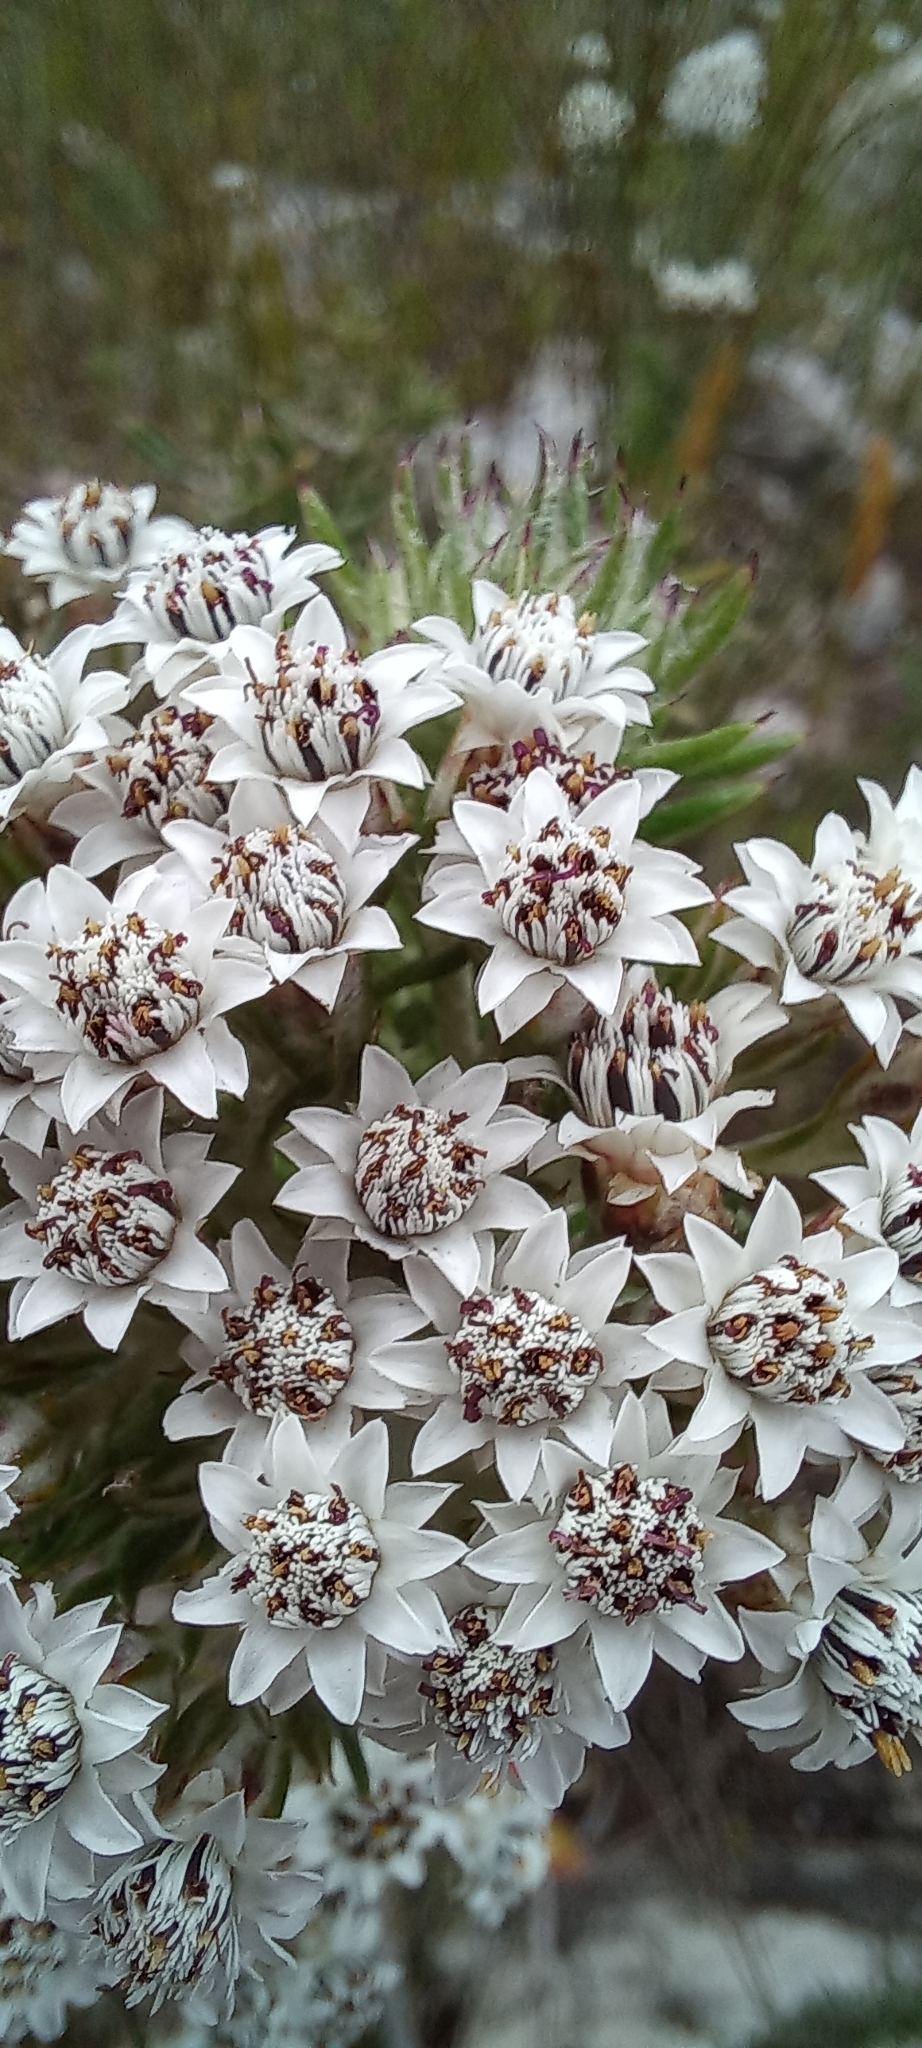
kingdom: Plantae
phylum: Tracheophyta
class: Magnoliopsida
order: Asterales
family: Asteraceae
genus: Metalasia
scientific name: Metalasia lichtensteinii
